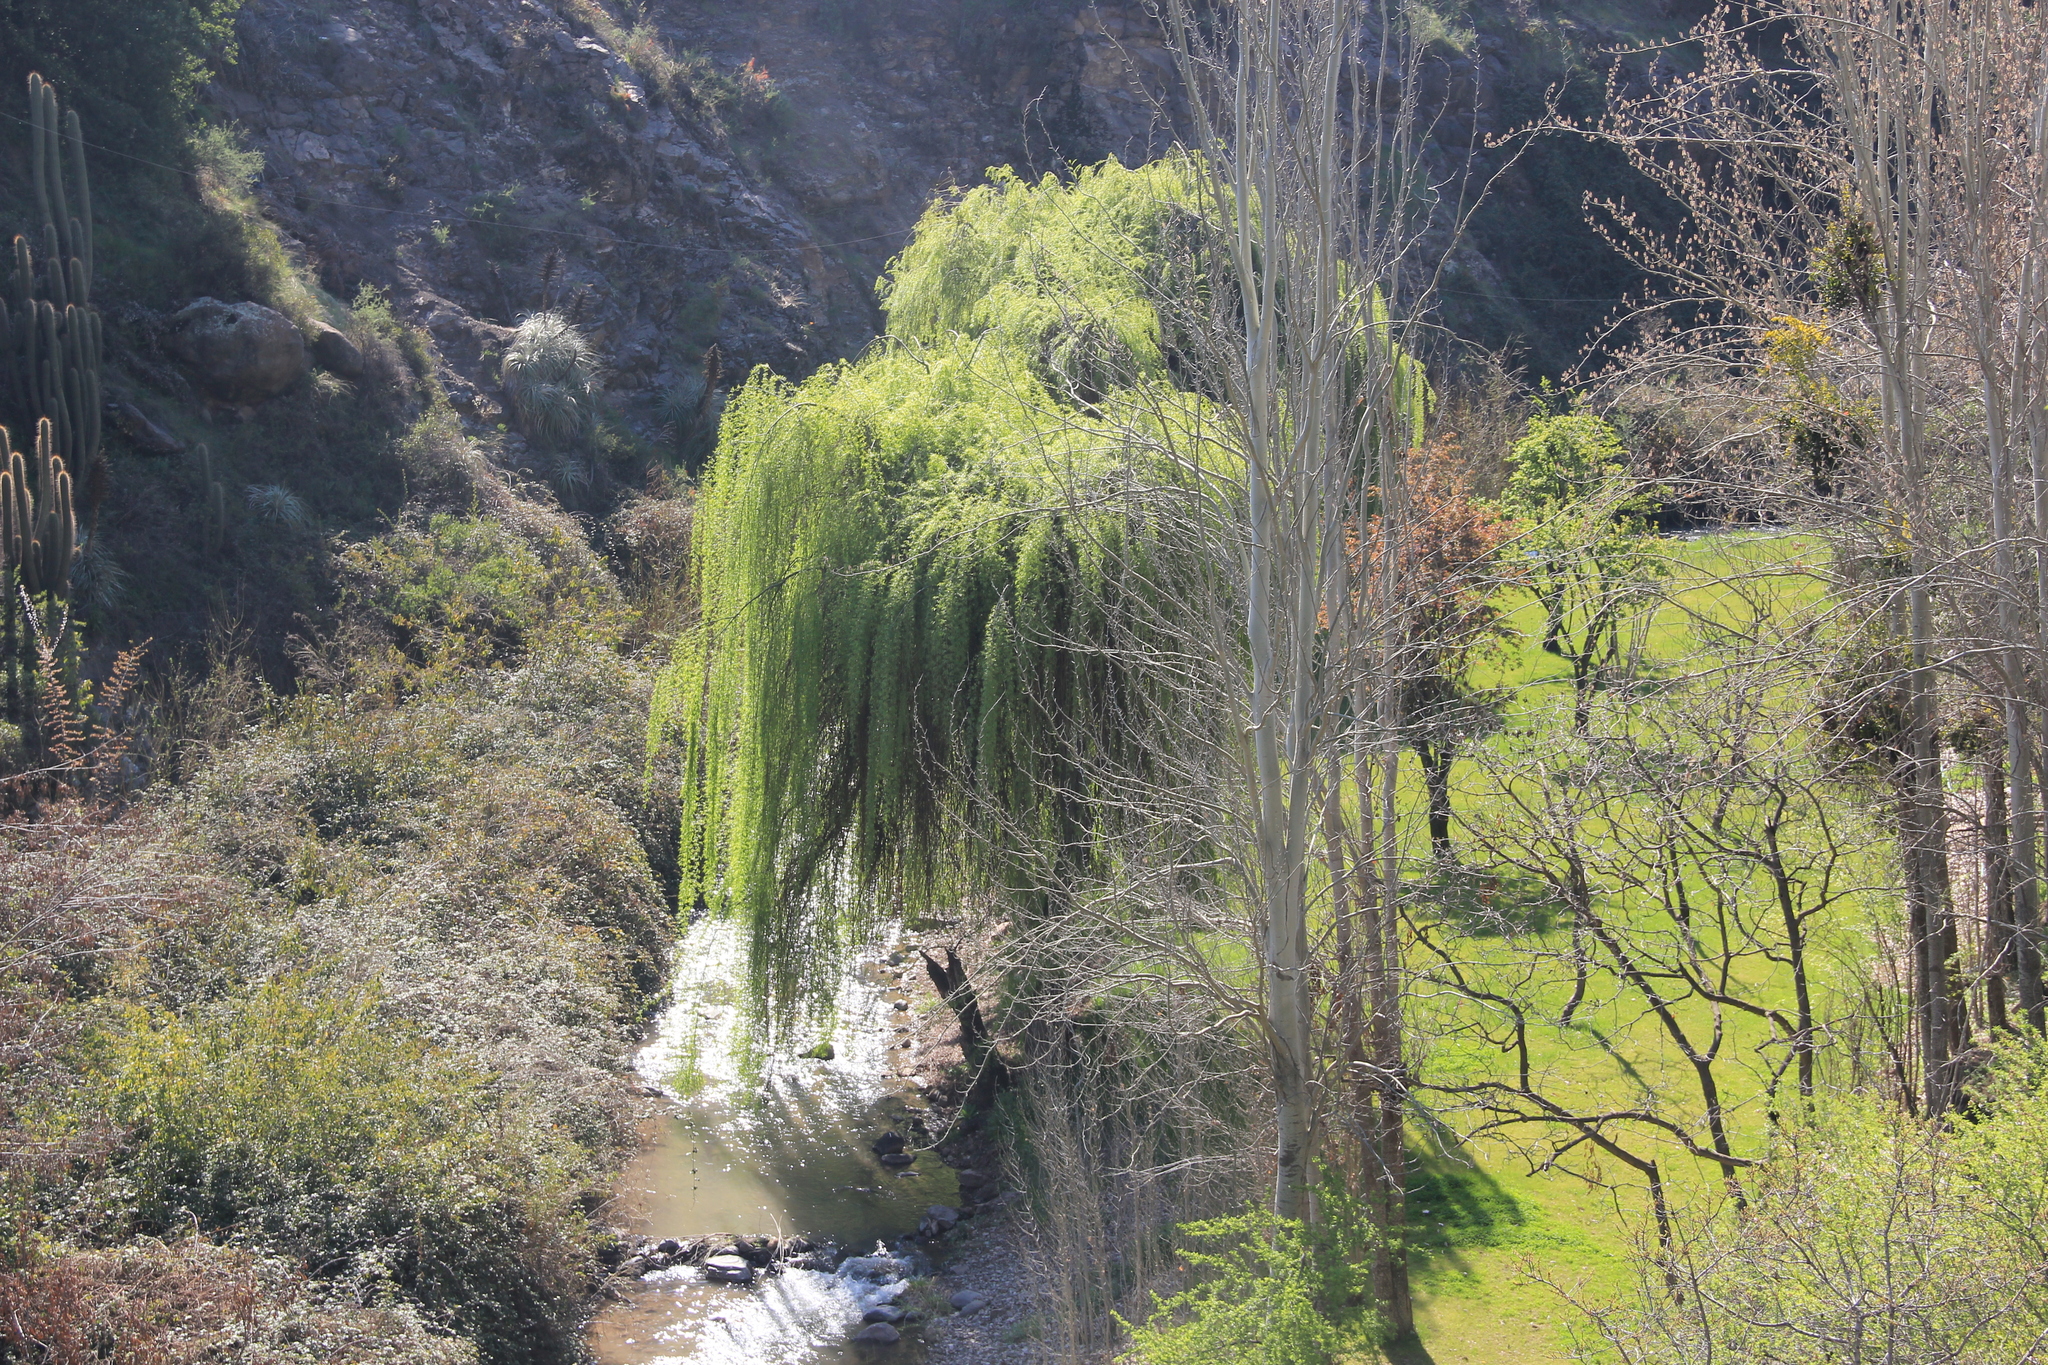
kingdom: Plantae
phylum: Tracheophyta
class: Magnoliopsida
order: Malpighiales
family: Salicaceae
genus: Salix
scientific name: Salix babylonica
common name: Weeping willow
